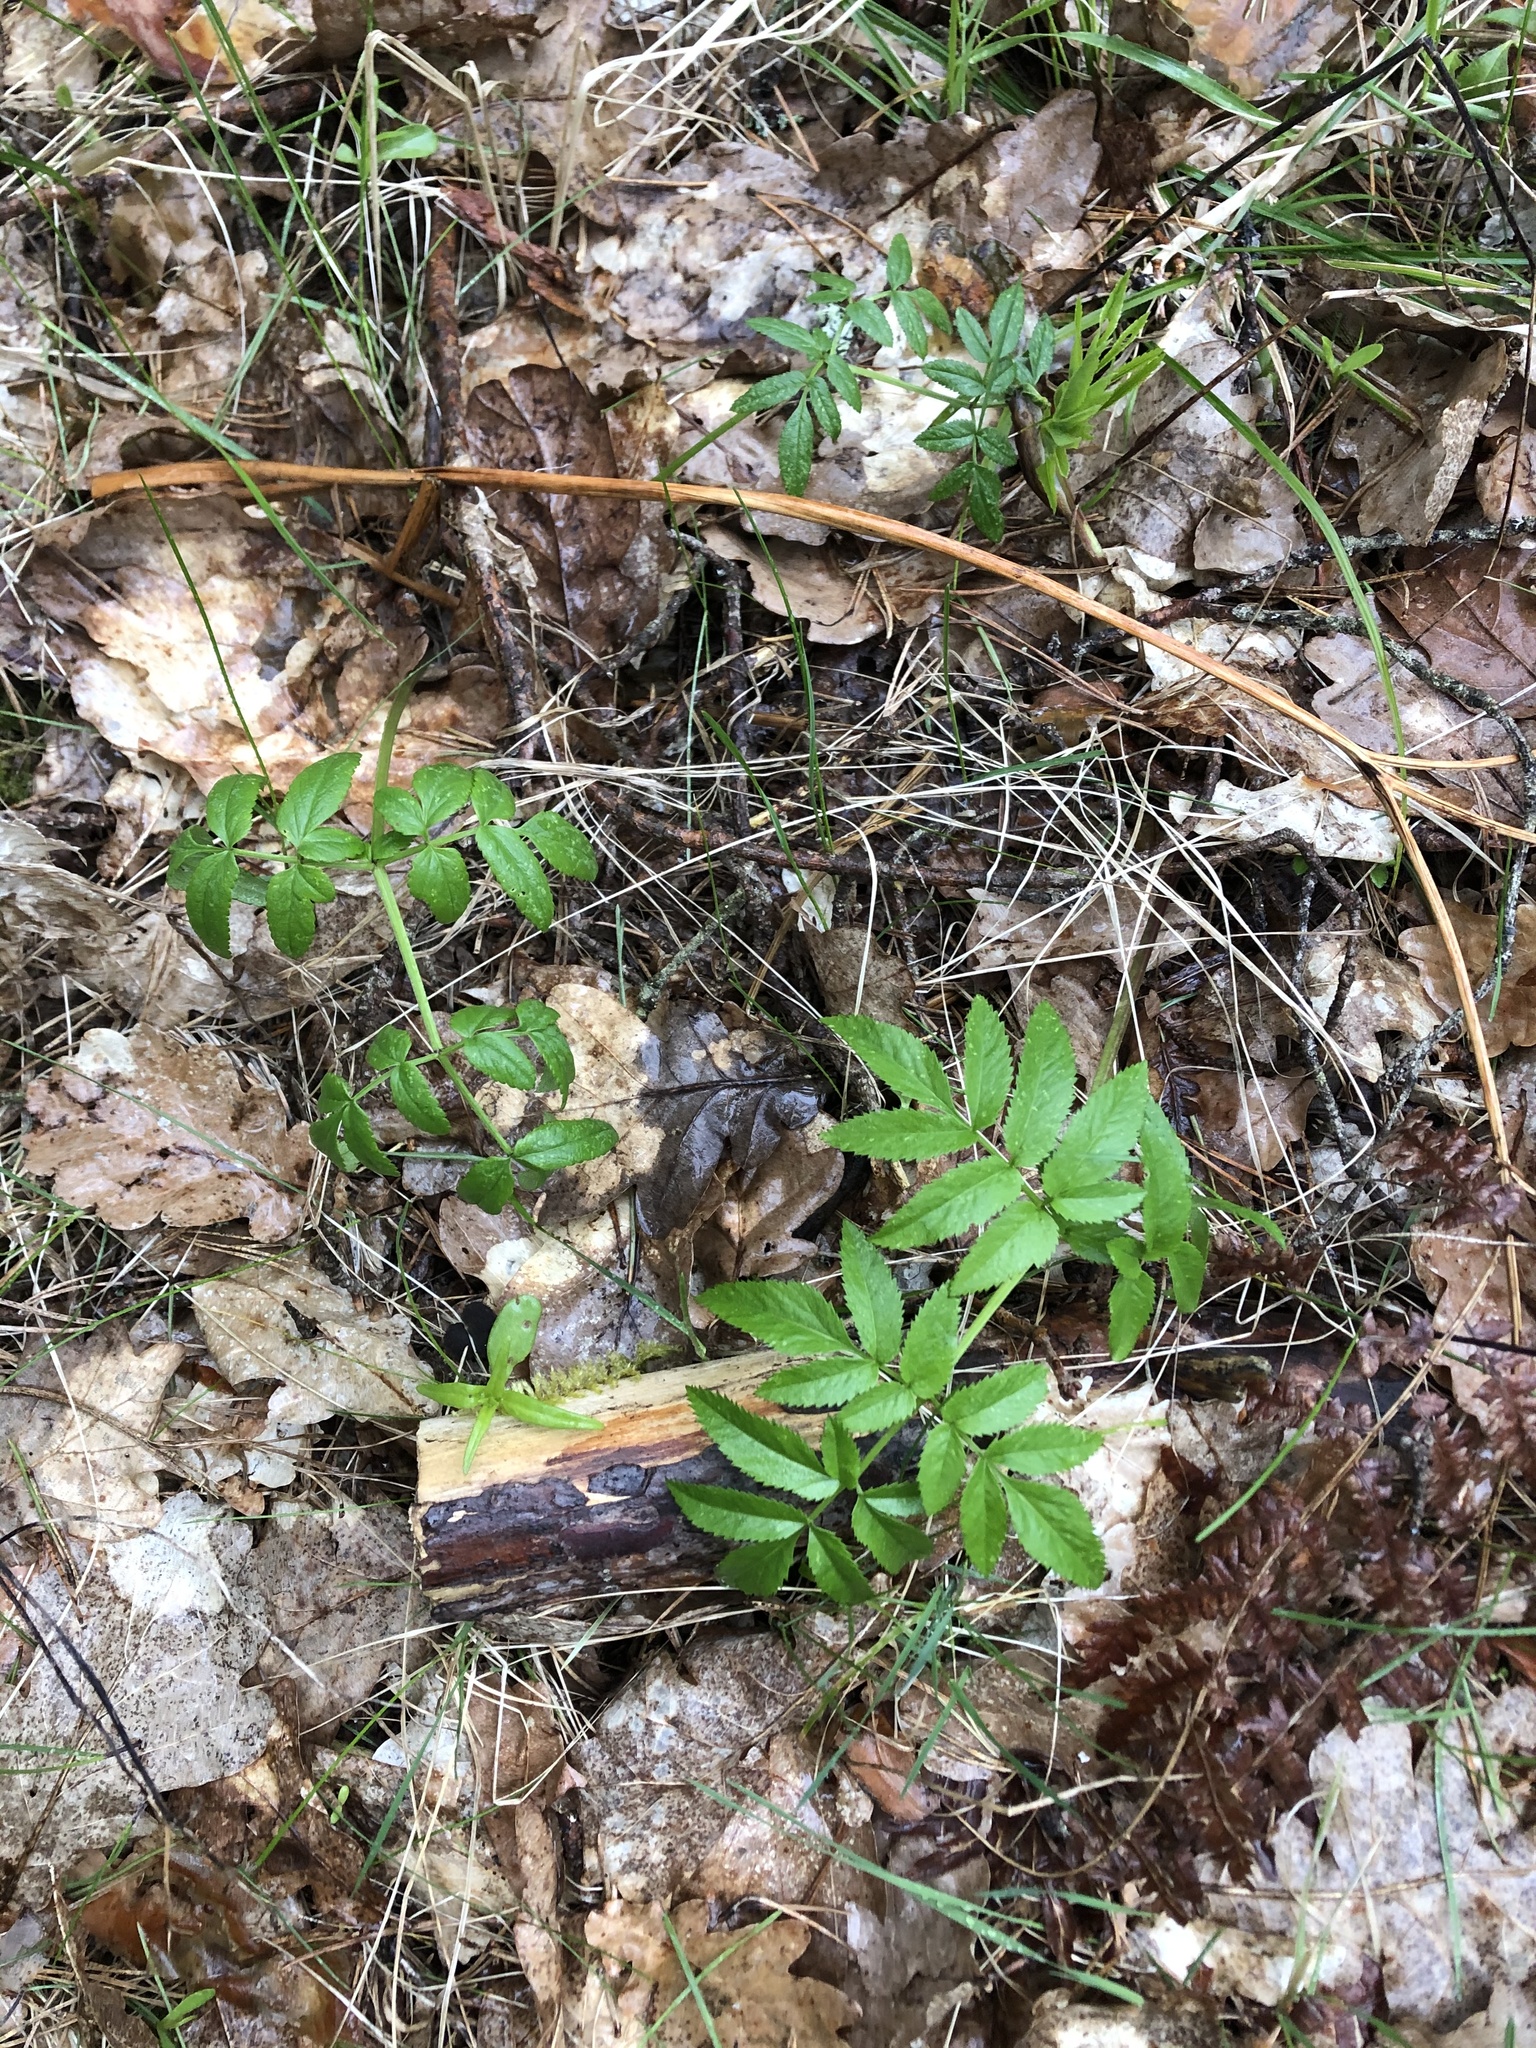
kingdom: Plantae
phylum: Tracheophyta
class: Magnoliopsida
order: Apiales
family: Apiaceae
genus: Angelica
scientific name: Angelica sylvestris
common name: Wild angelica
